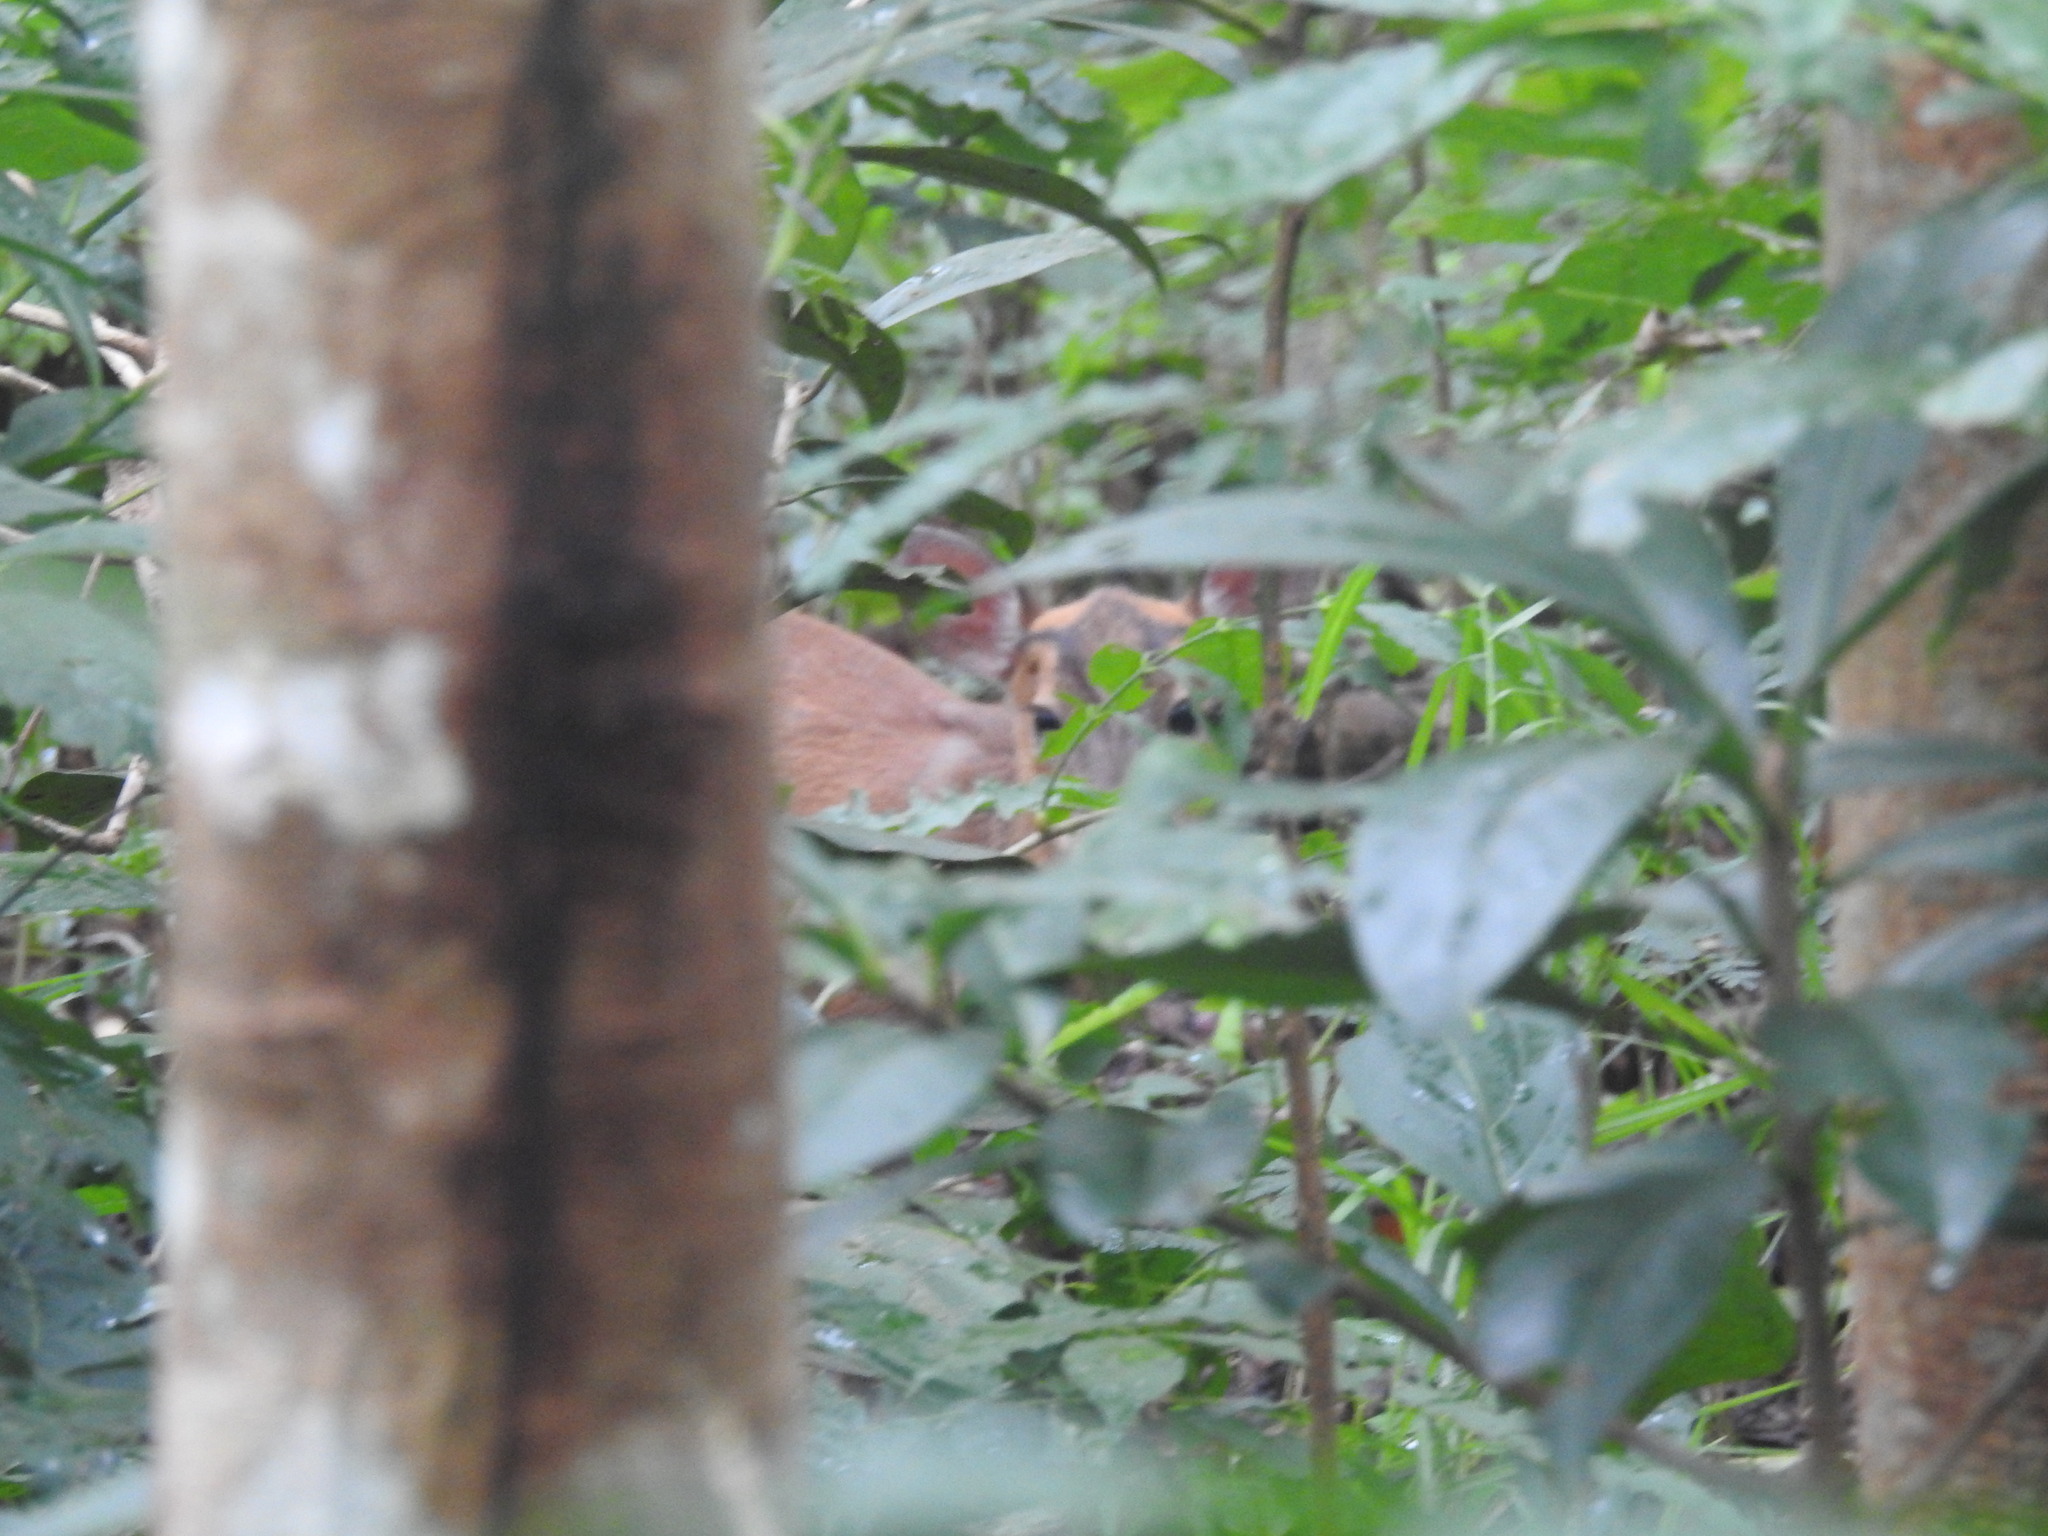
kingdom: Animalia
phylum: Chordata
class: Mammalia
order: Artiodactyla
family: Cervidae
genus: Muntiacus
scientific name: Muntiacus muntjak
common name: Indian muntjac
